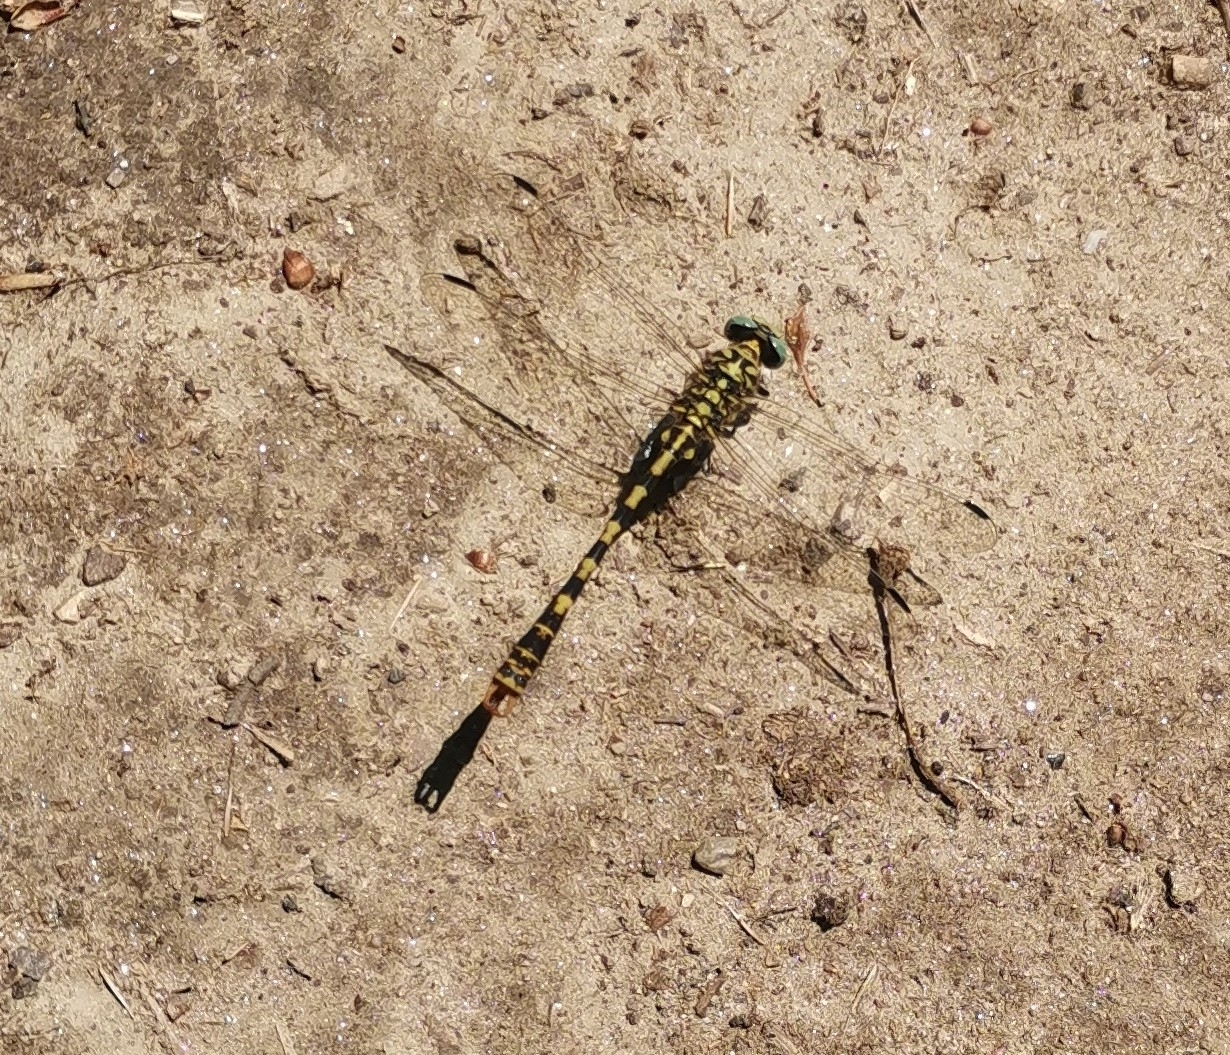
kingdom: Animalia
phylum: Arthropoda
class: Insecta
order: Odonata
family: Gomphidae
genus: Onychogomphus
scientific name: Onychogomphus forcipatus
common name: Small pincertail
